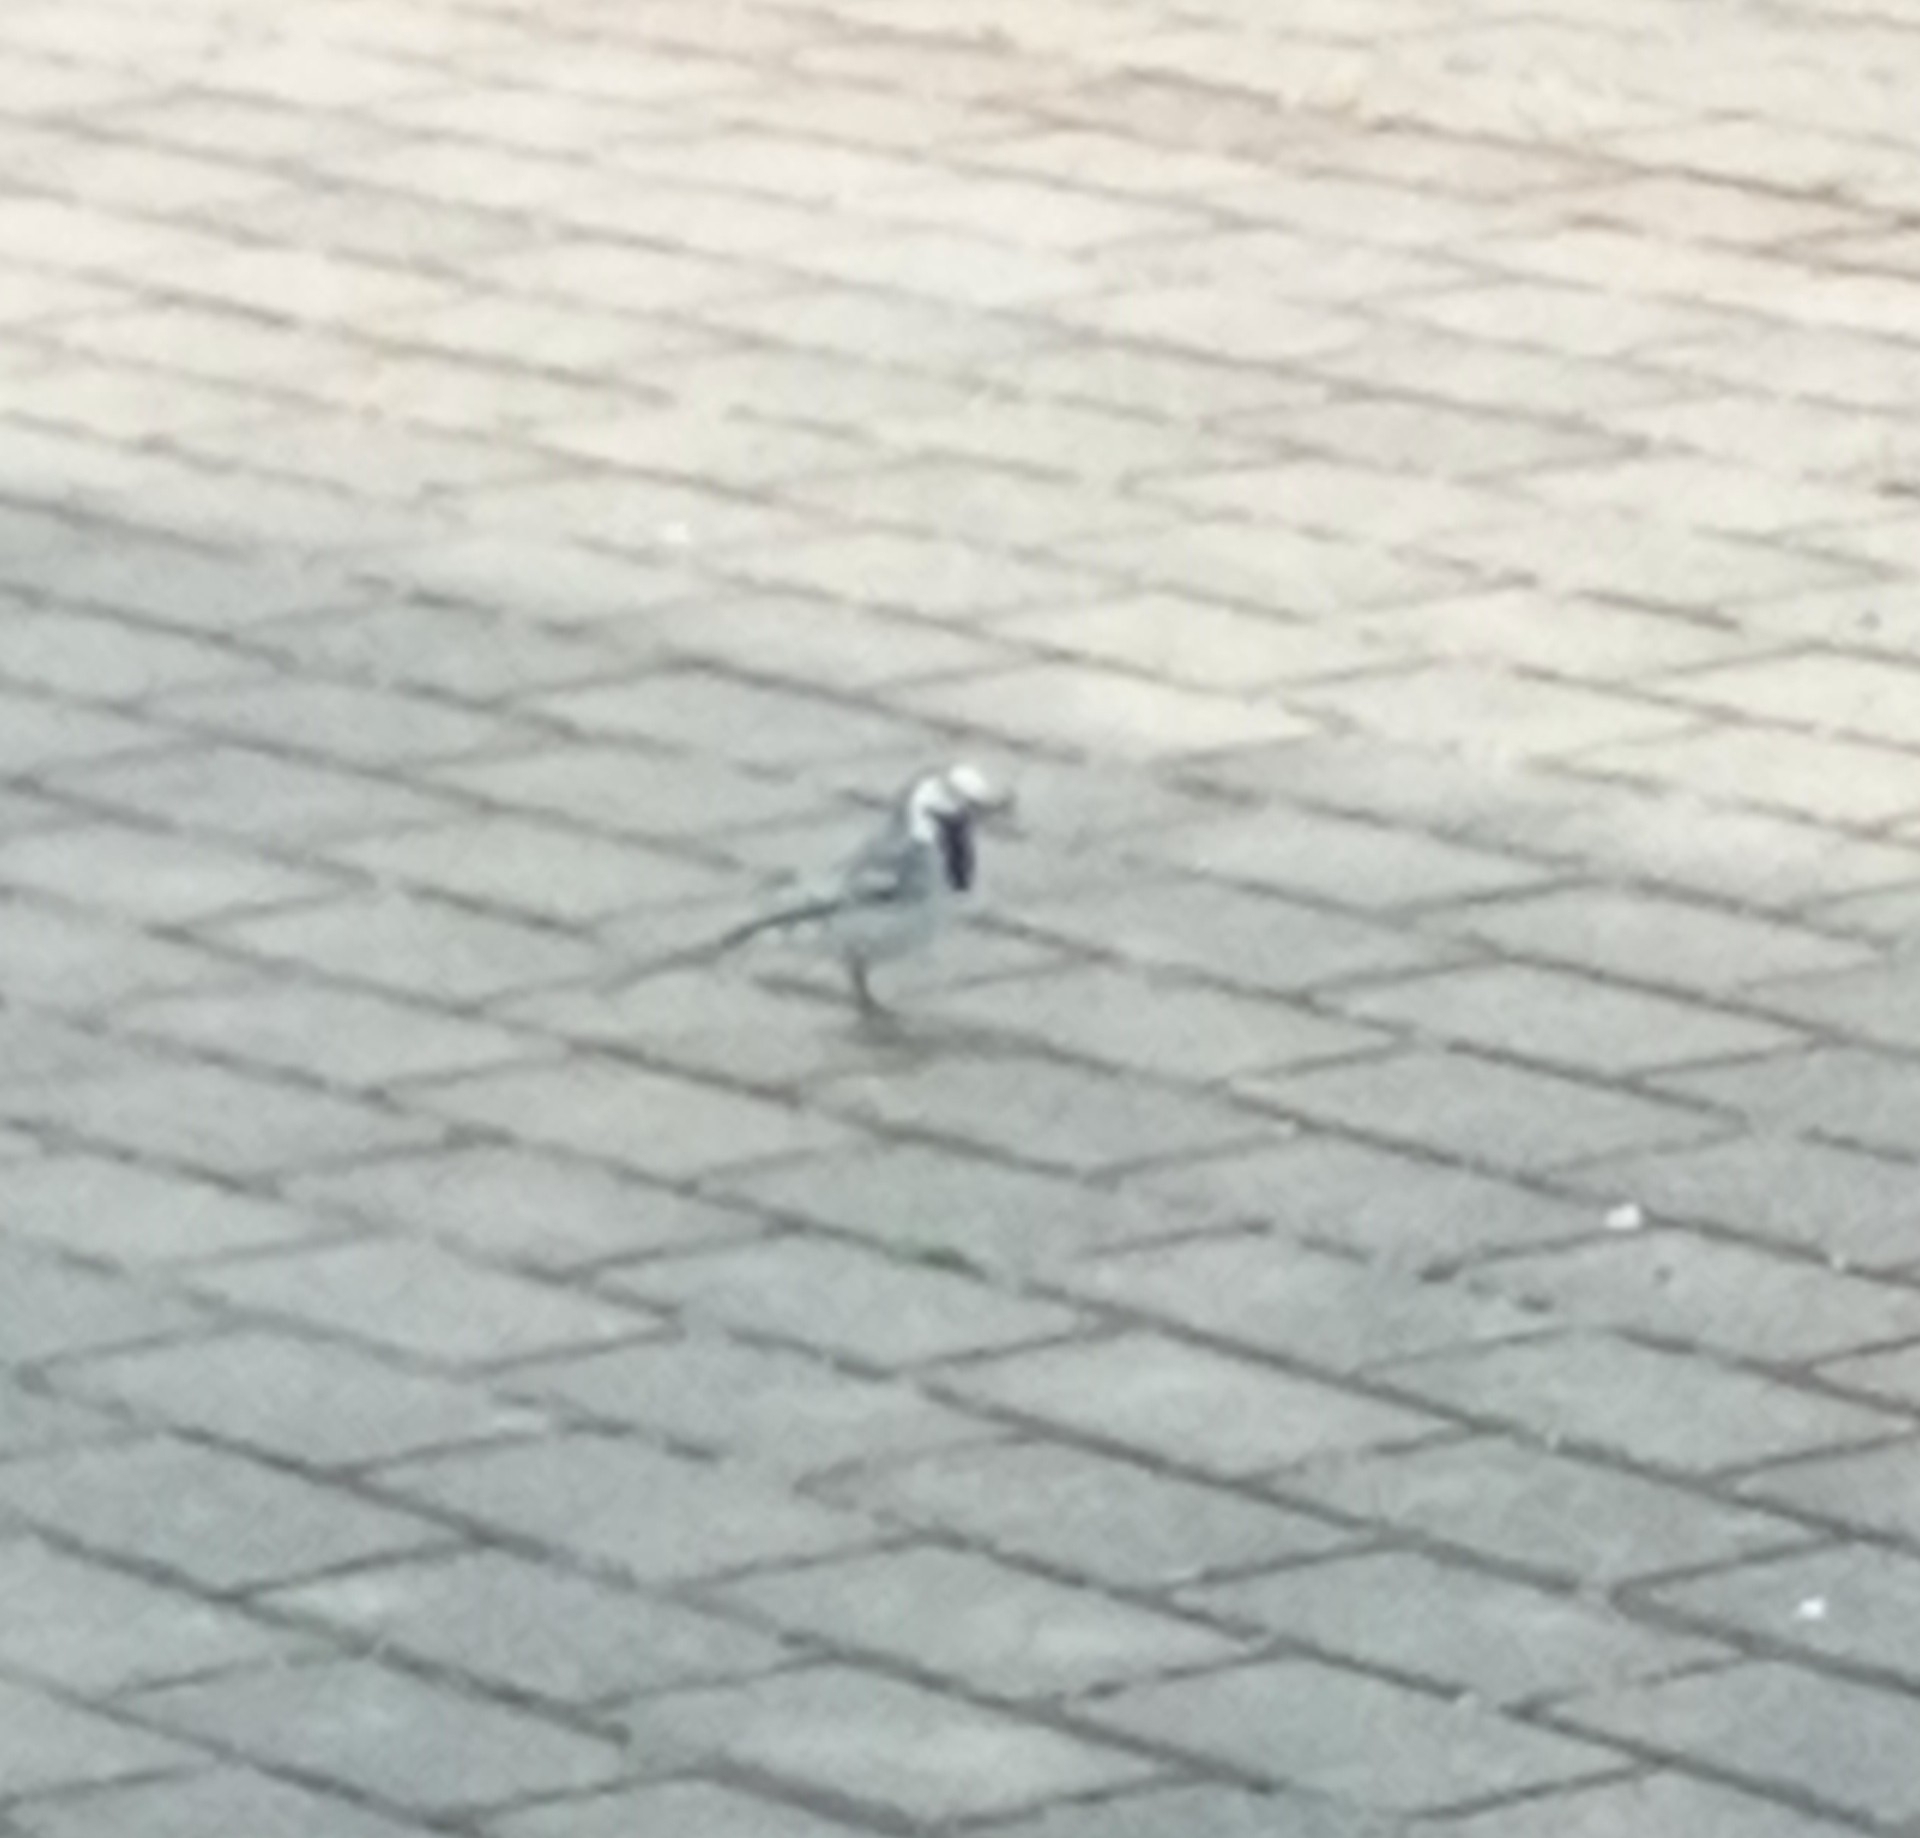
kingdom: Animalia
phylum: Chordata
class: Aves
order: Passeriformes
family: Motacillidae
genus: Motacilla
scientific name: Motacilla alba
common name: White wagtail
